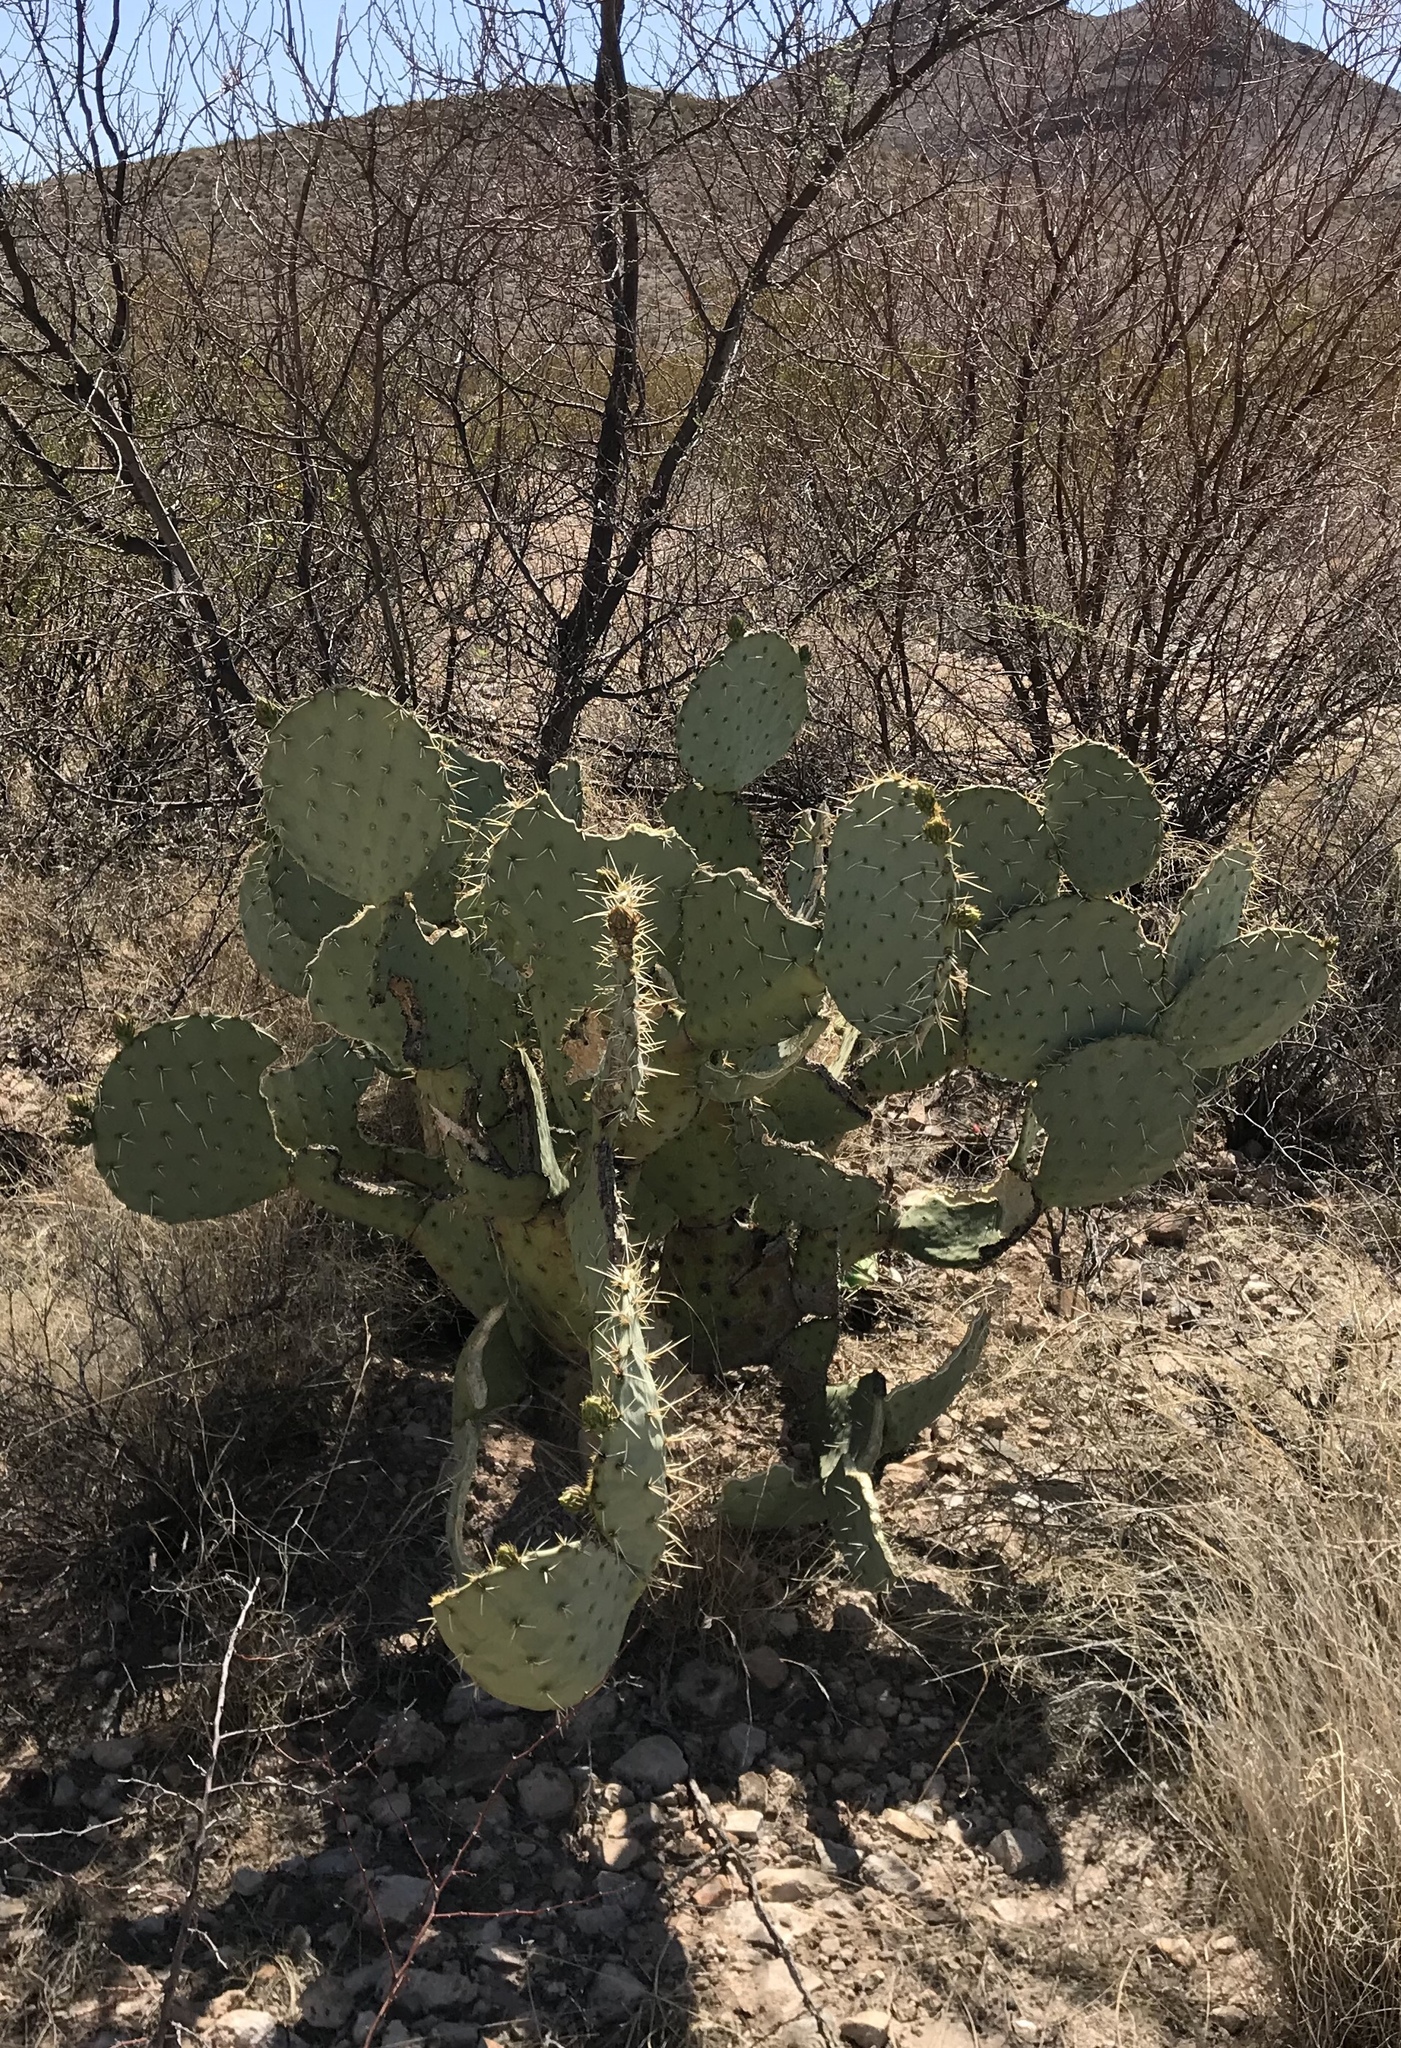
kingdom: Plantae
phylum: Tracheophyta
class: Magnoliopsida
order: Caryophyllales
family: Cactaceae
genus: Opuntia
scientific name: Opuntia orbiculata
